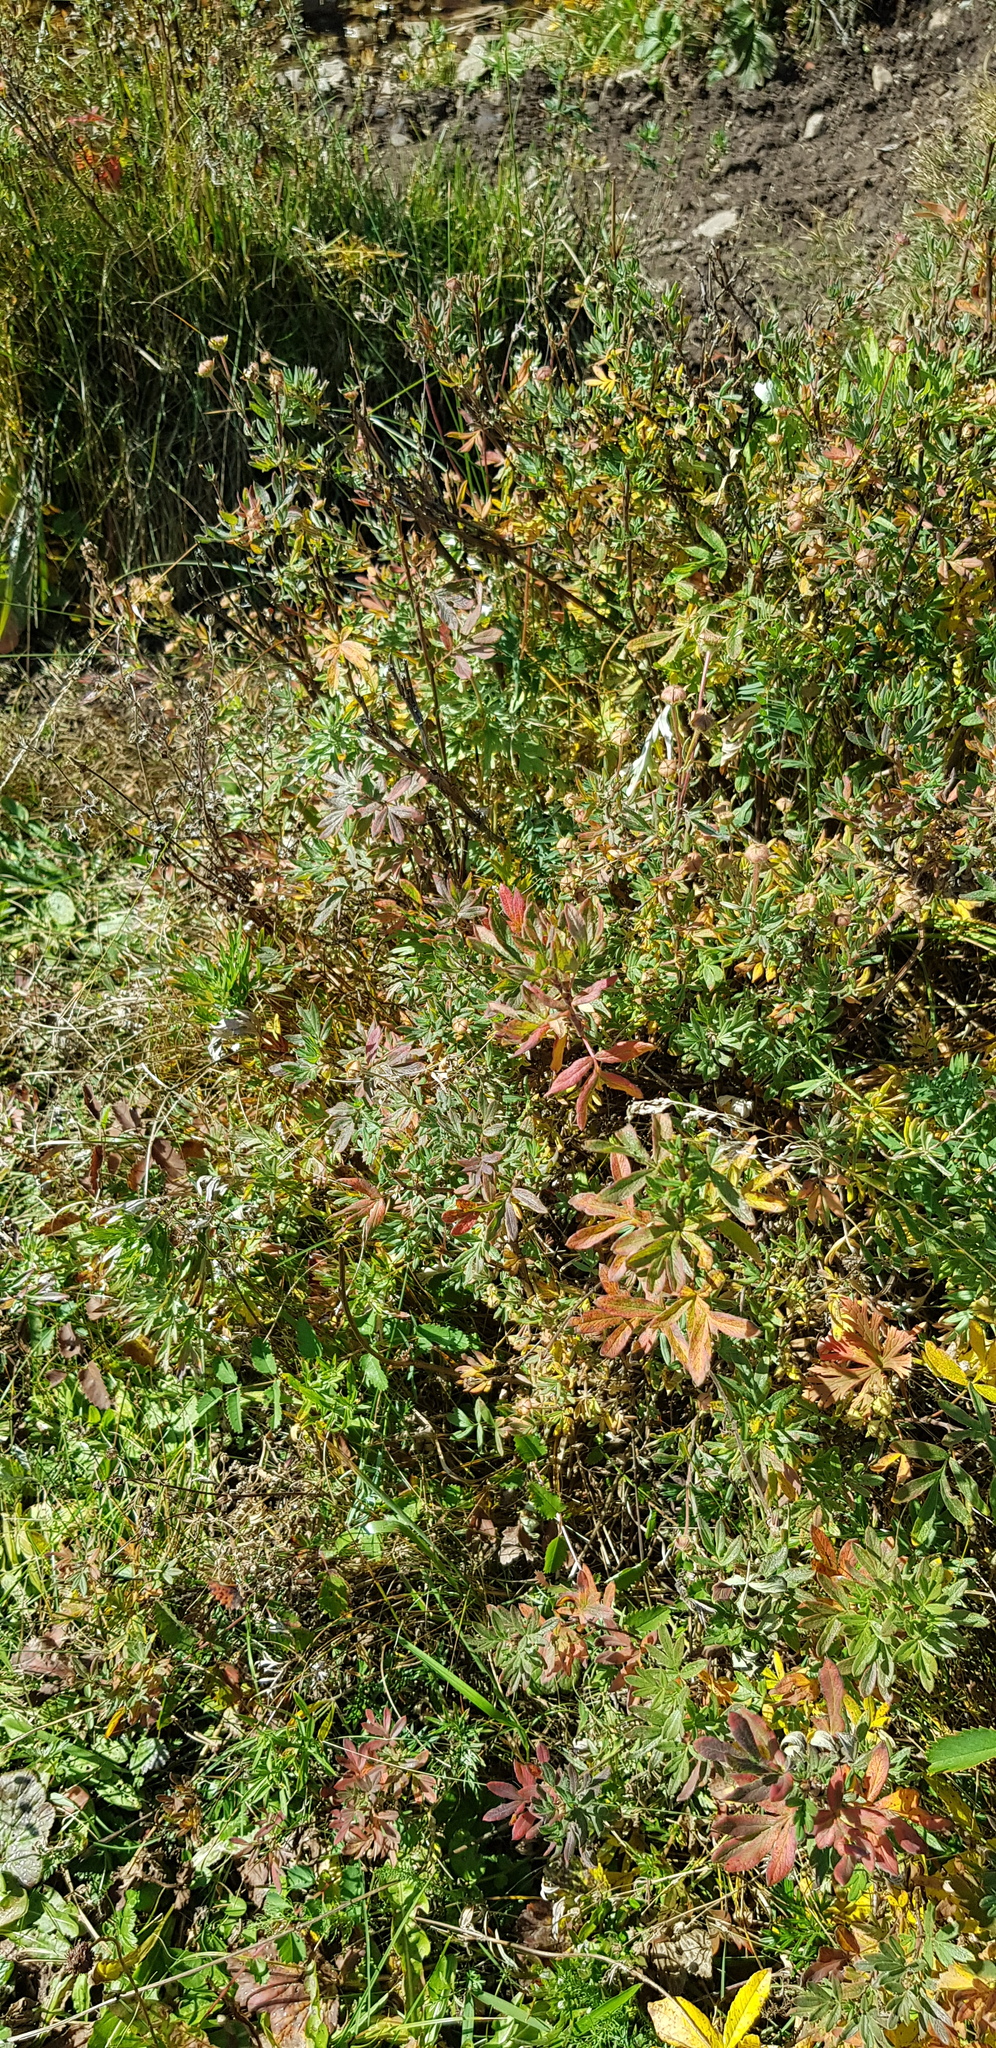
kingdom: Plantae
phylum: Tracheophyta
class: Magnoliopsida
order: Rosales
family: Rosaceae
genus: Dasiphora
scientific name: Dasiphora fruticosa
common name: Shrubby cinquefoil
